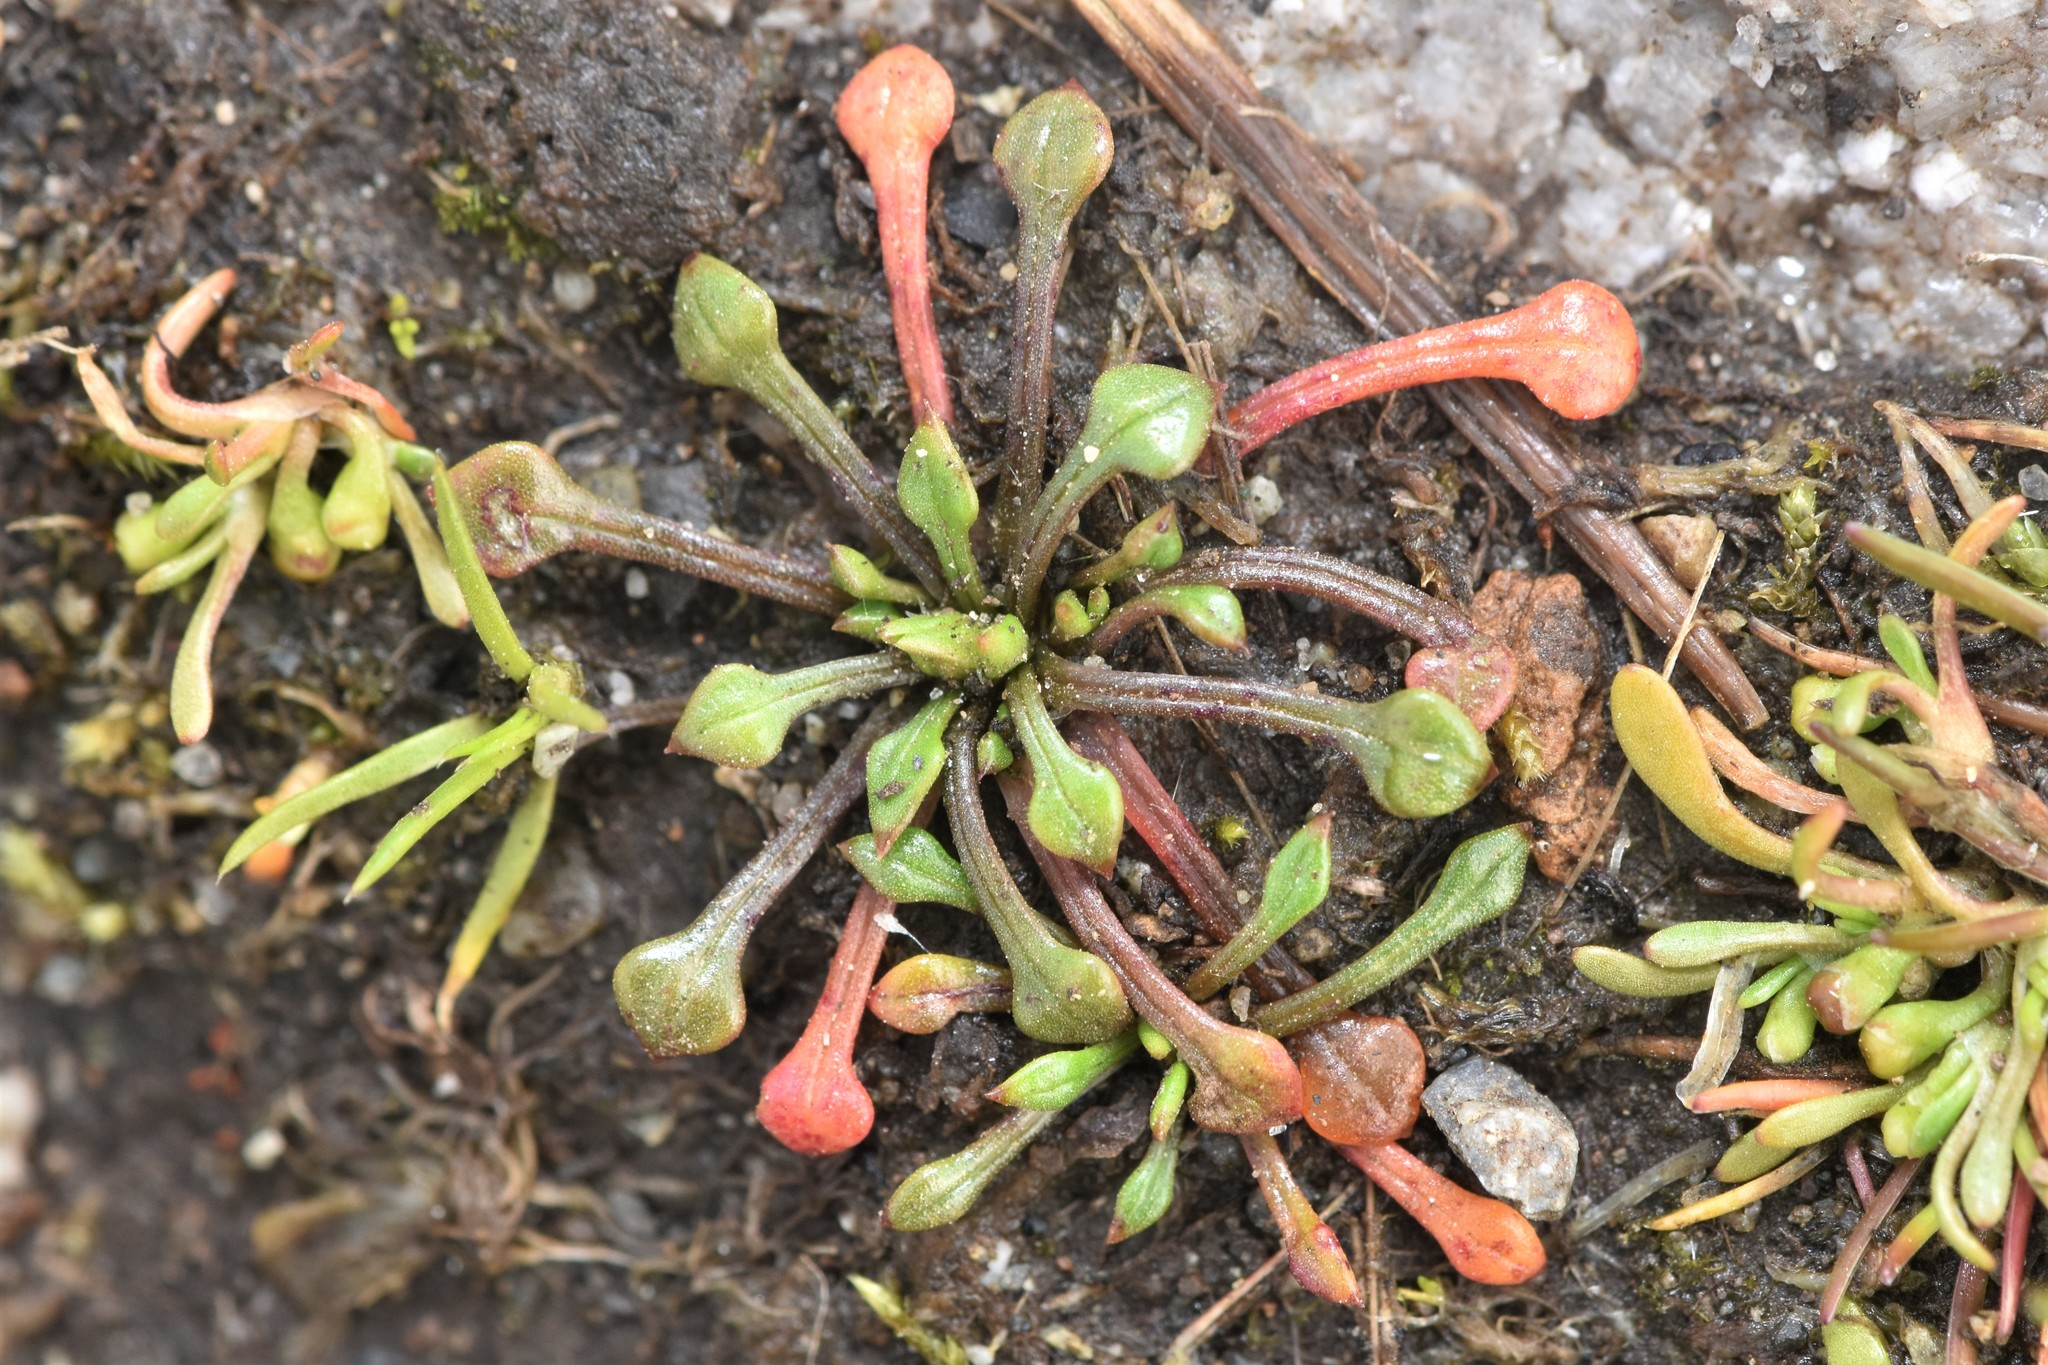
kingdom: Plantae
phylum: Tracheophyta
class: Magnoliopsida
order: Caryophyllales
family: Montiaceae
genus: Calandrinia
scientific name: Calandrinia menziesii
